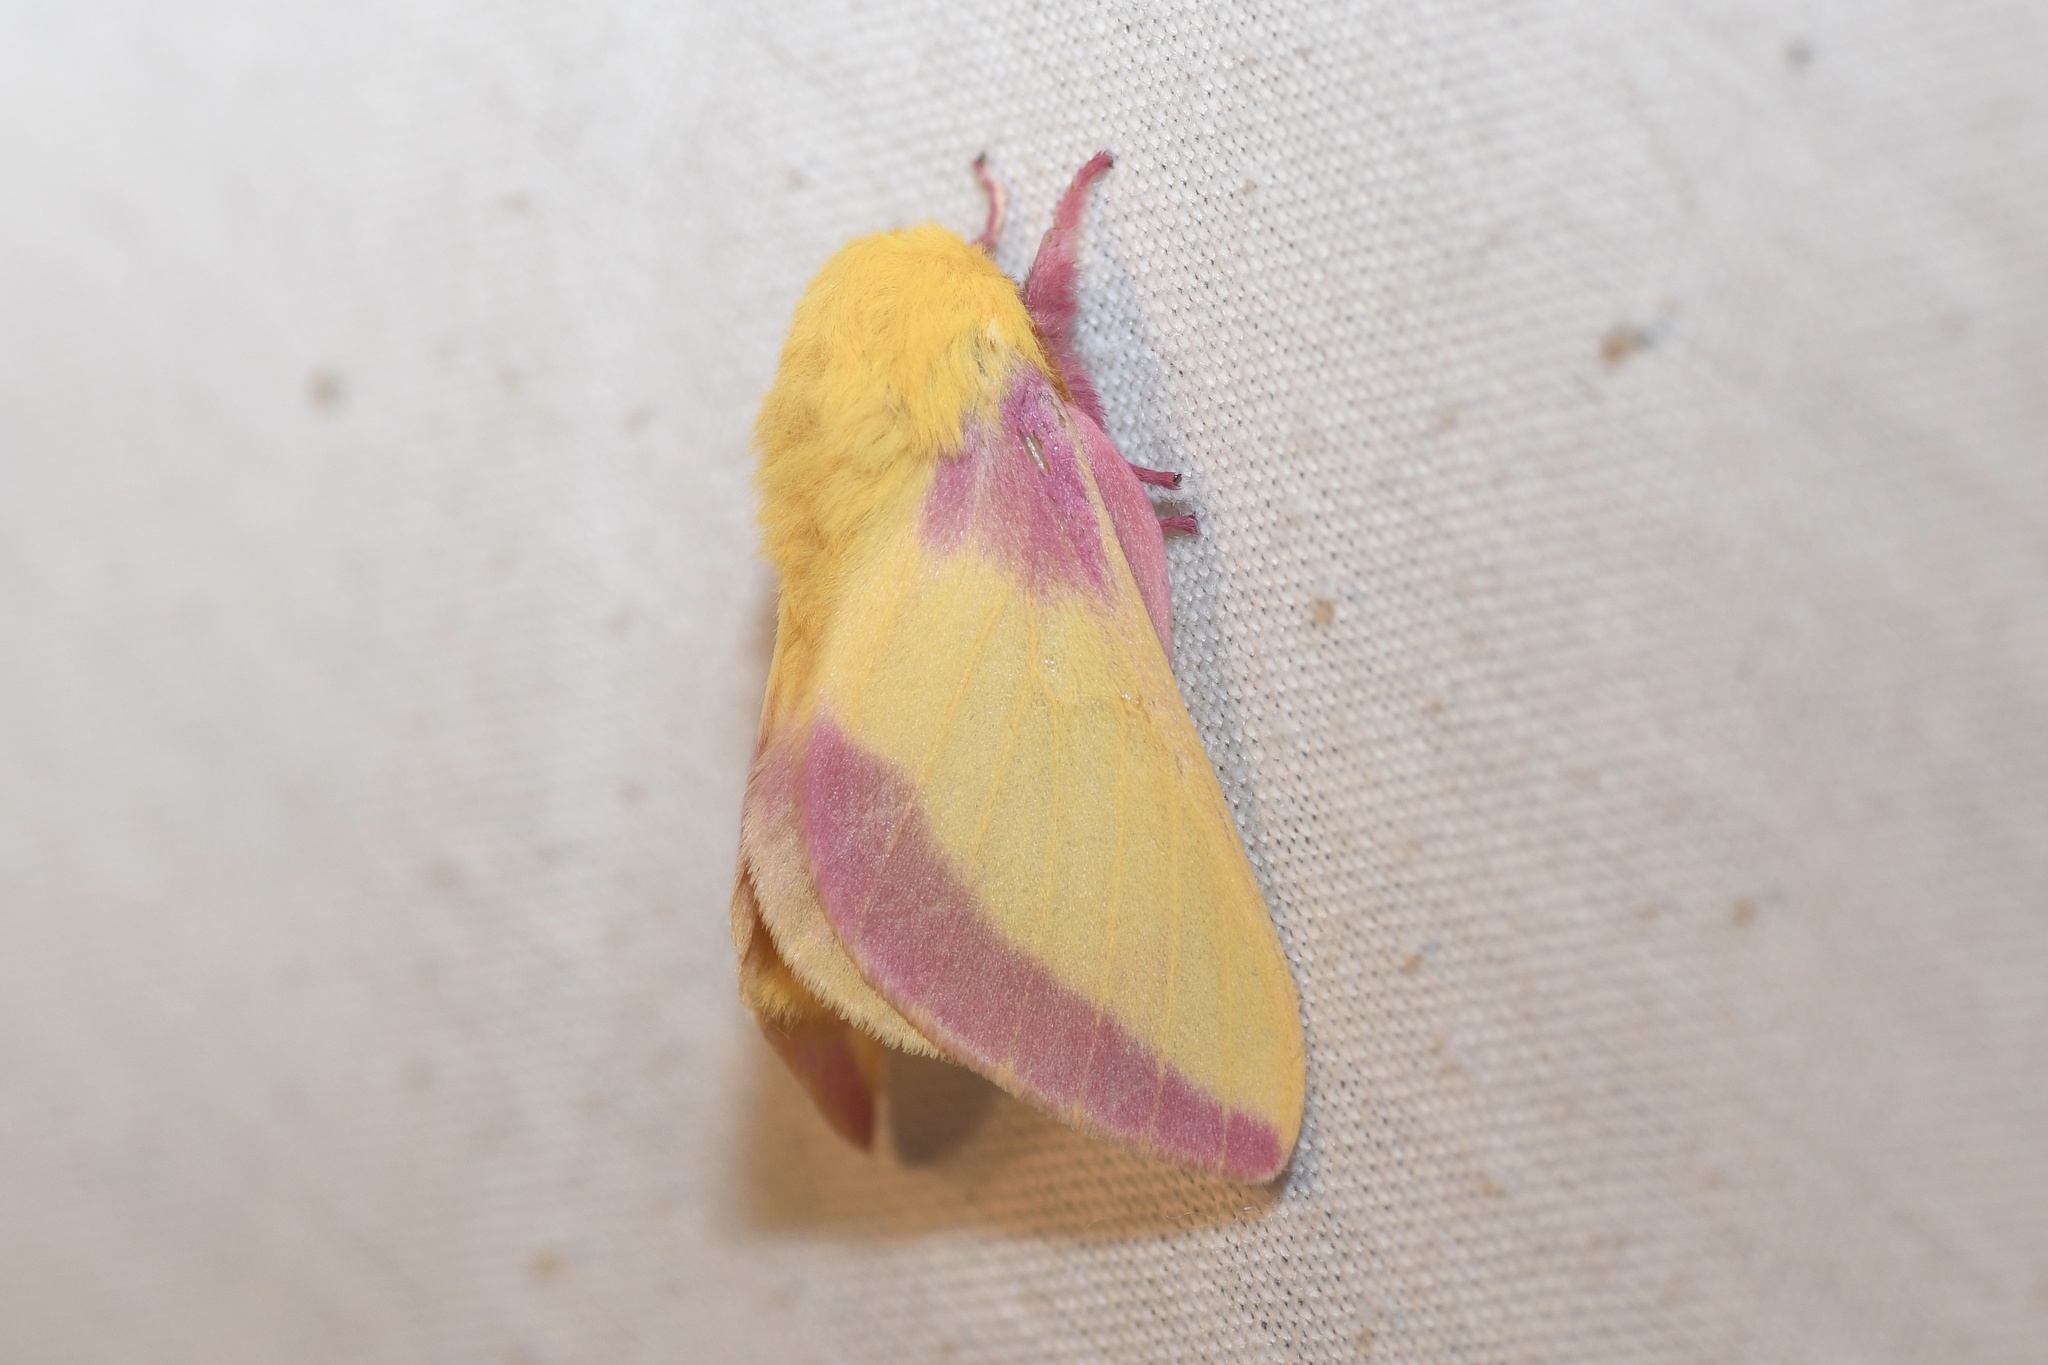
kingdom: Animalia
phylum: Arthropoda
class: Insecta
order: Lepidoptera
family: Saturniidae
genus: Dryocampa
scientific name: Dryocampa rubicunda
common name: Rosy maple moth
